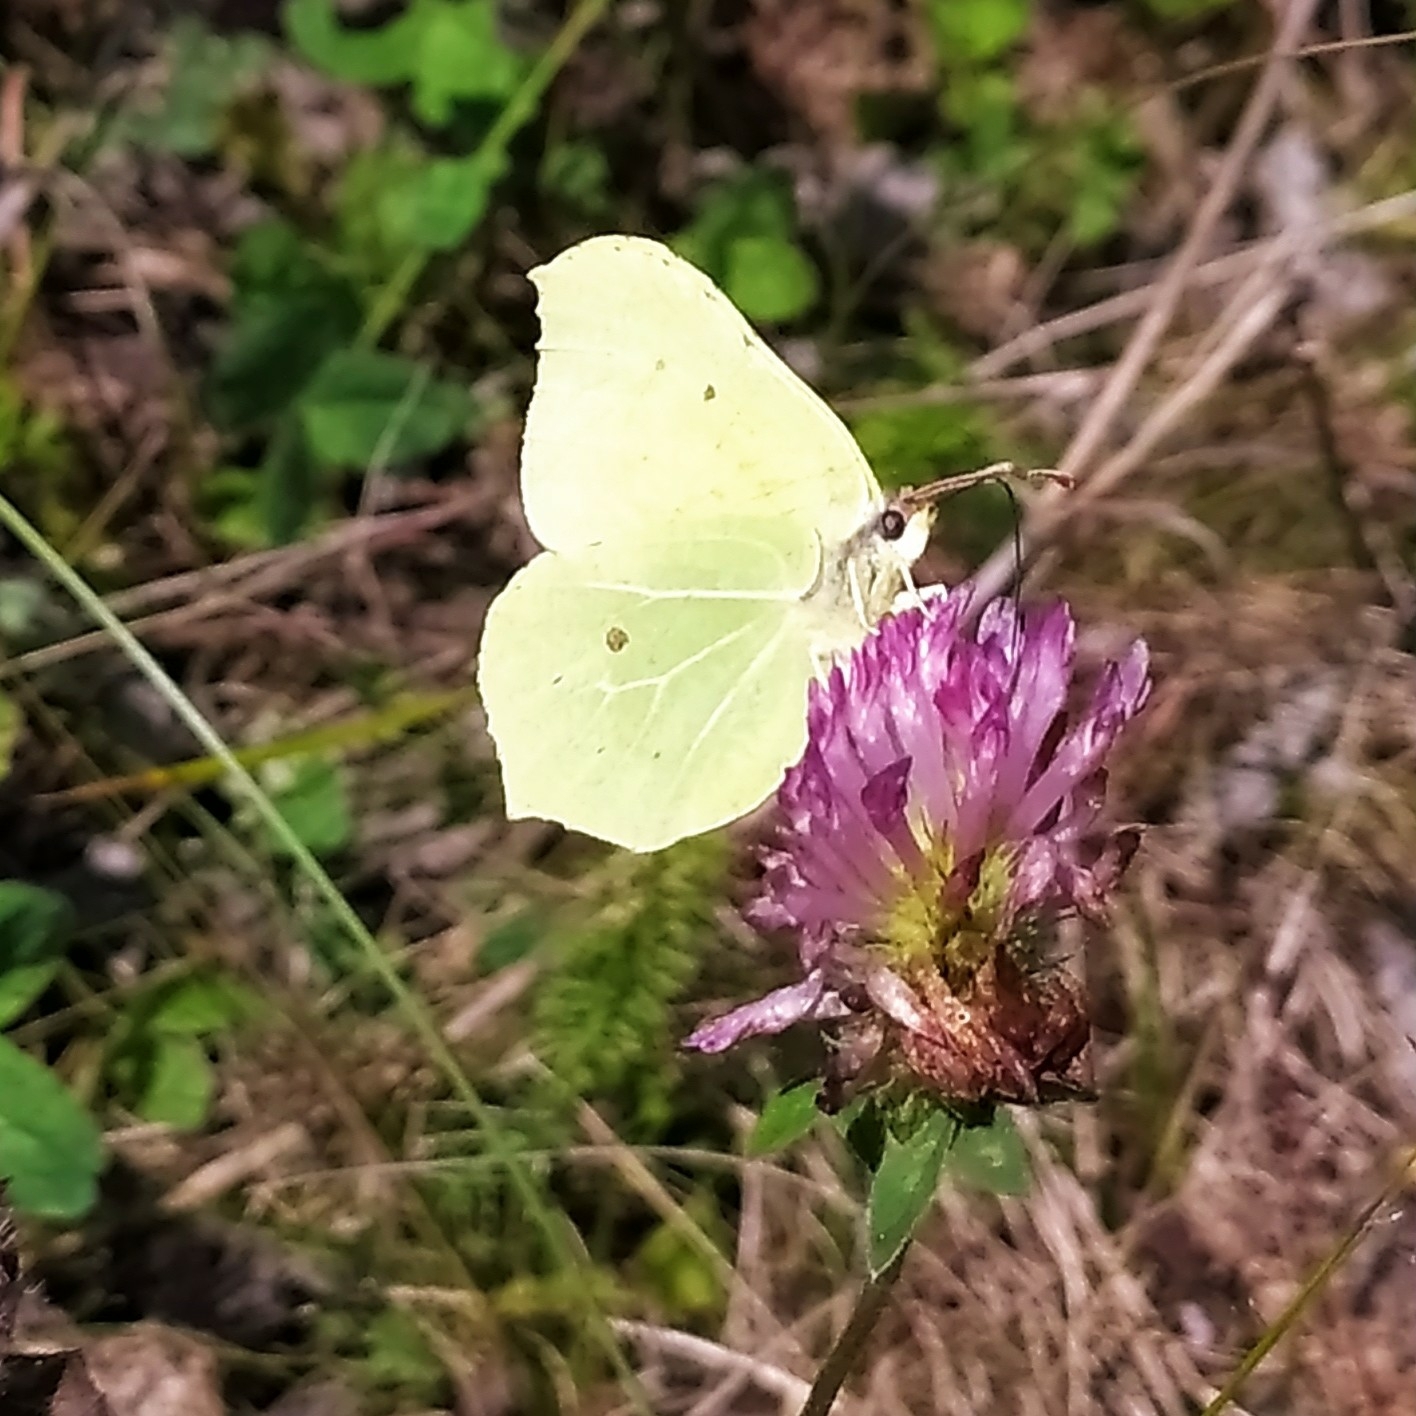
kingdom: Animalia
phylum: Arthropoda
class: Insecta
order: Lepidoptera
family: Pieridae
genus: Gonepteryx
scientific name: Gonepteryx rhamni
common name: Brimstone
